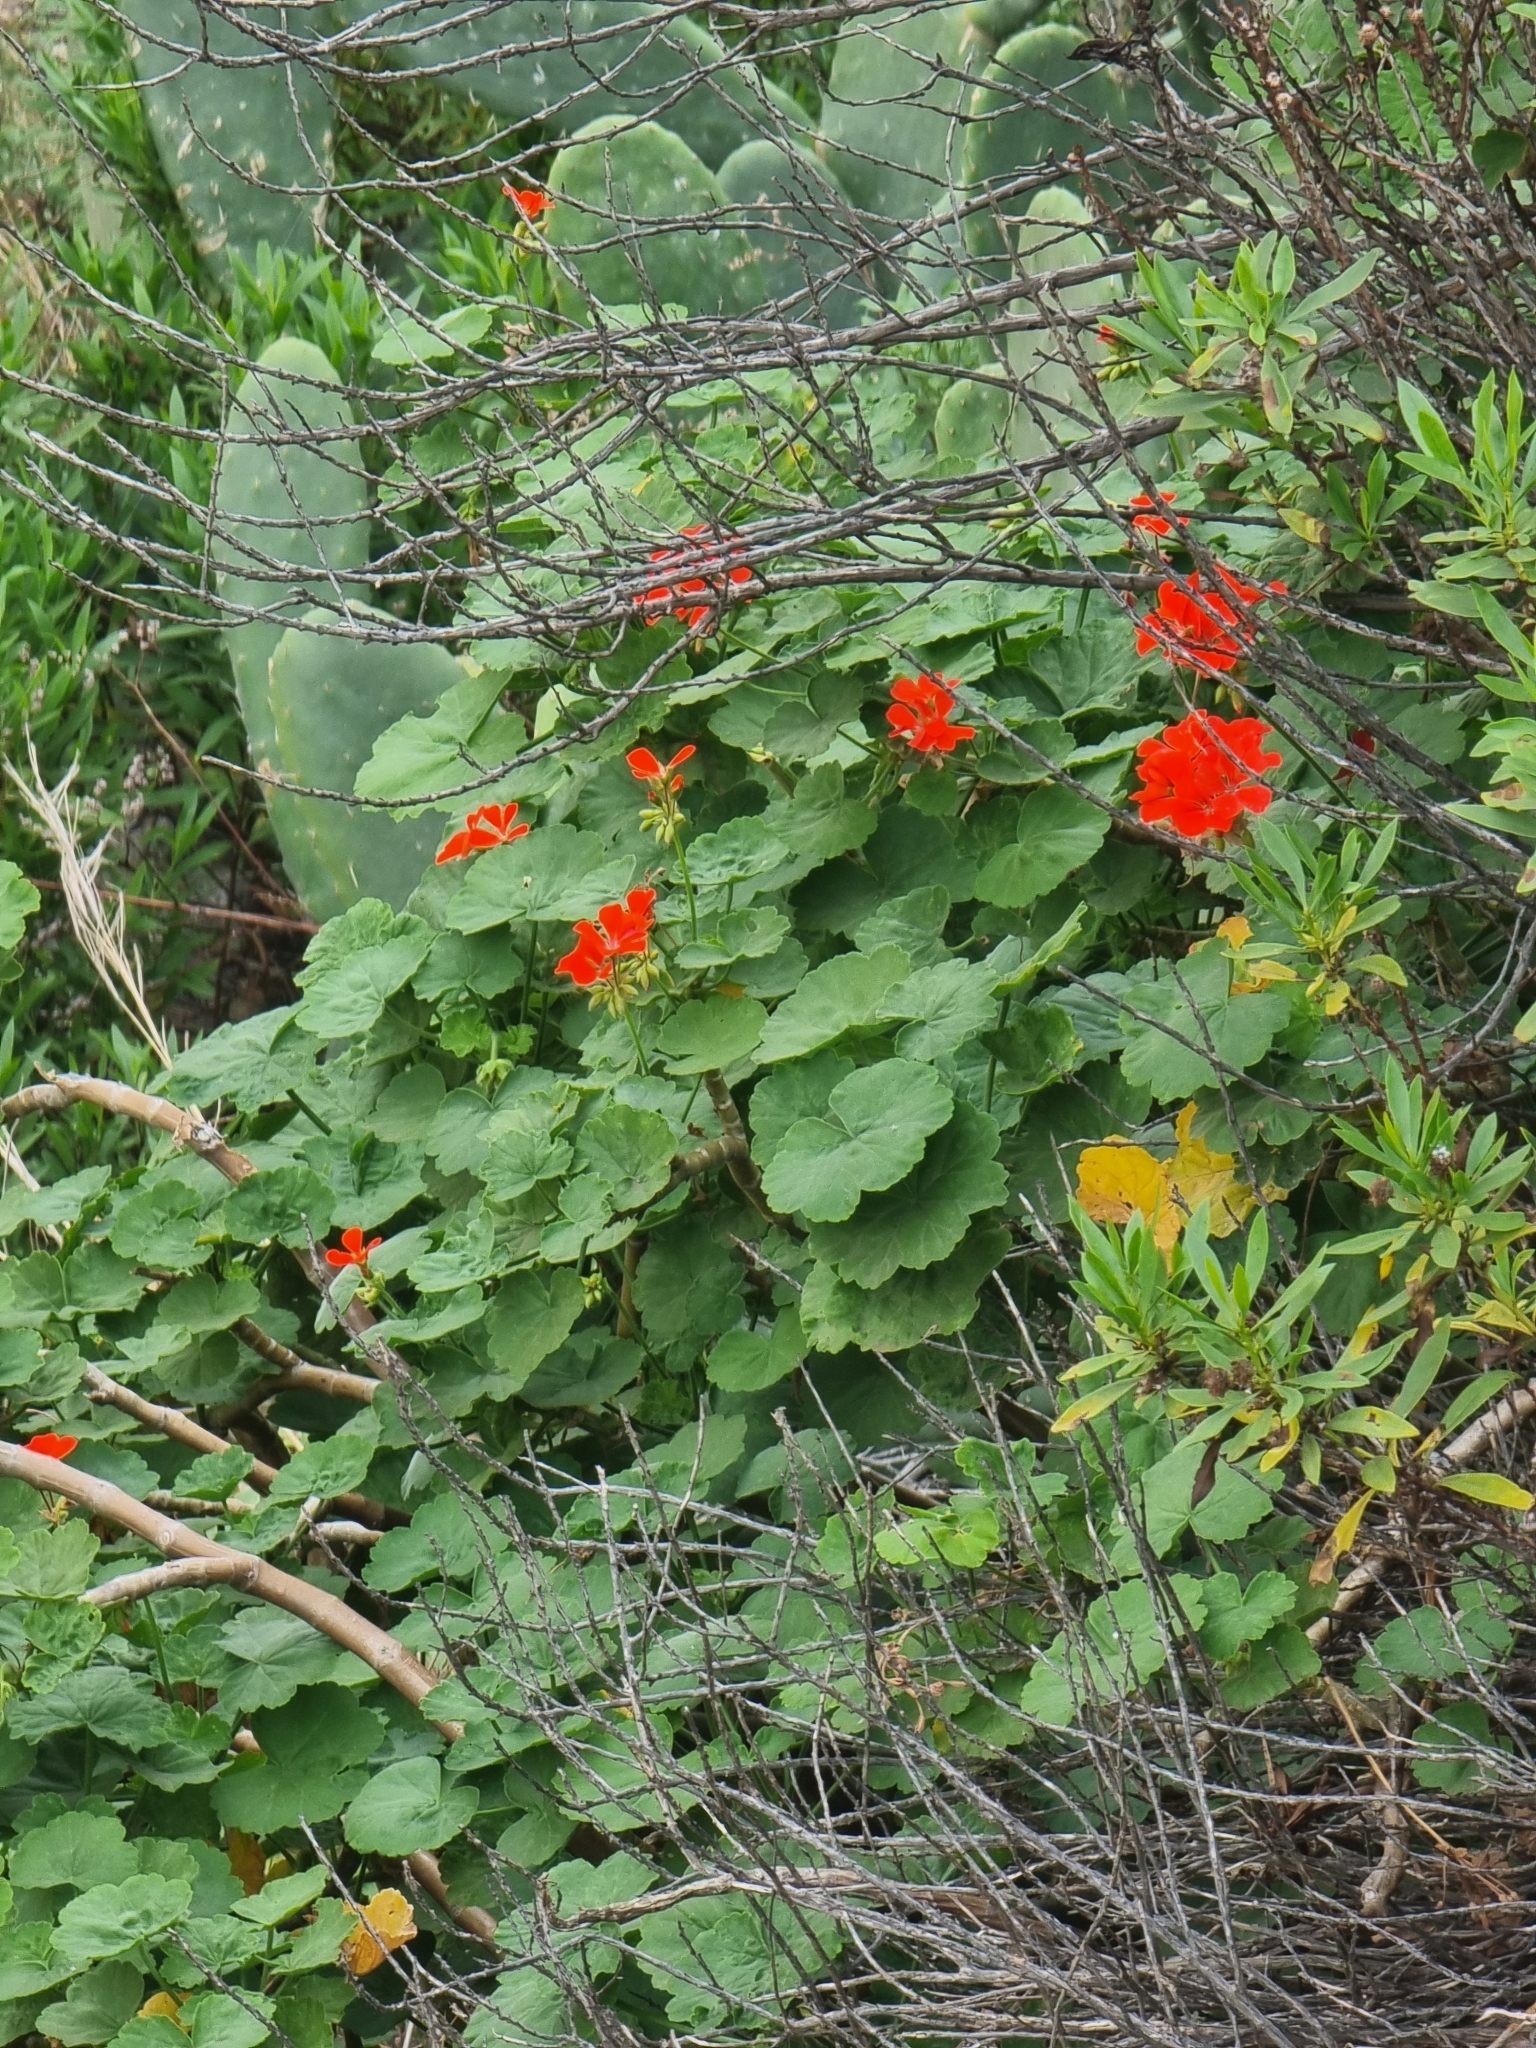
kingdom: Plantae
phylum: Tracheophyta
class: Magnoliopsida
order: Geraniales
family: Geraniaceae
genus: Pelargonium
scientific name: Pelargonium hybridum
